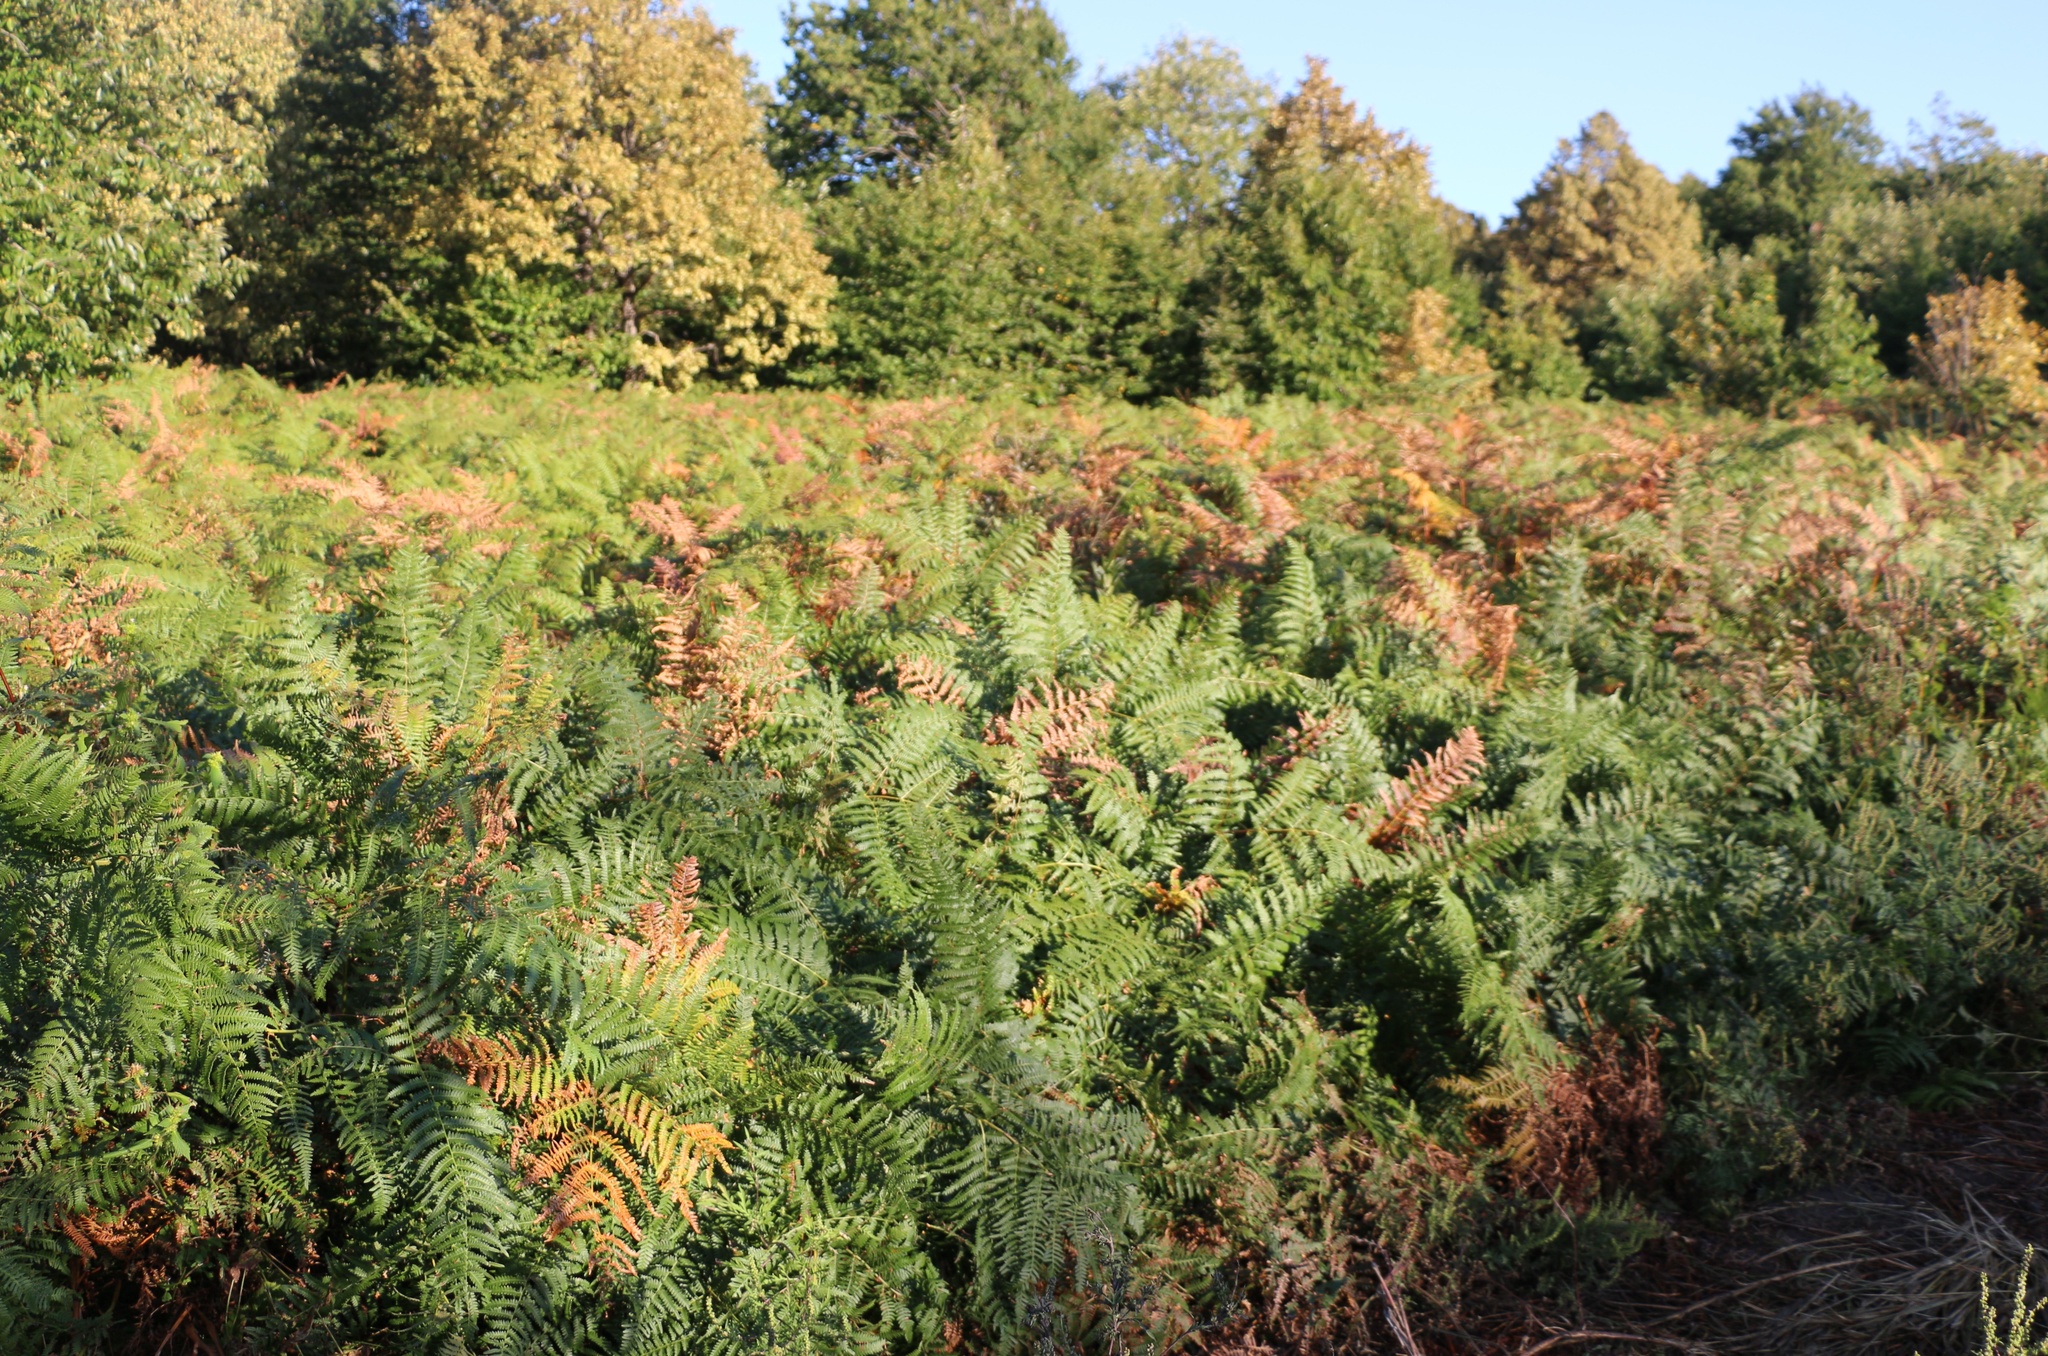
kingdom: Plantae
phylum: Tracheophyta
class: Polypodiopsida
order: Polypodiales
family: Dennstaedtiaceae
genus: Pteridium
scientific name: Pteridium tauricum
